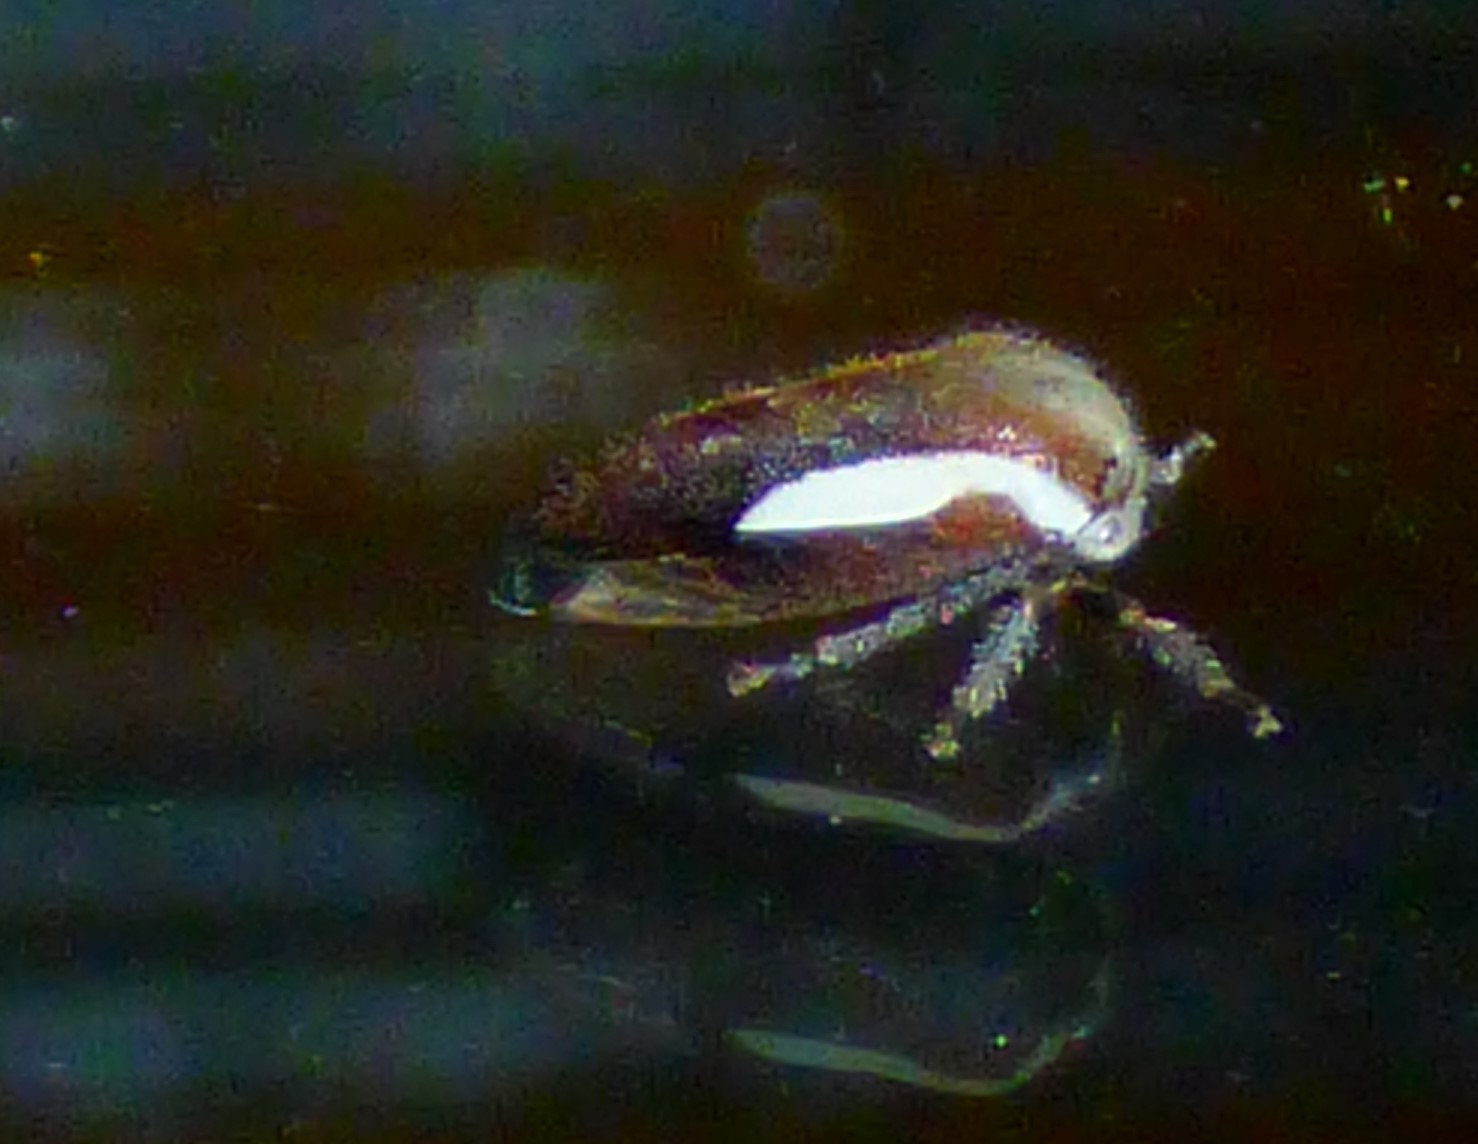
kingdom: Animalia
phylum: Arthropoda
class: Insecta
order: Hemiptera
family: Membracidae
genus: Ophiderma
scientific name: Ophiderma flavicephala
